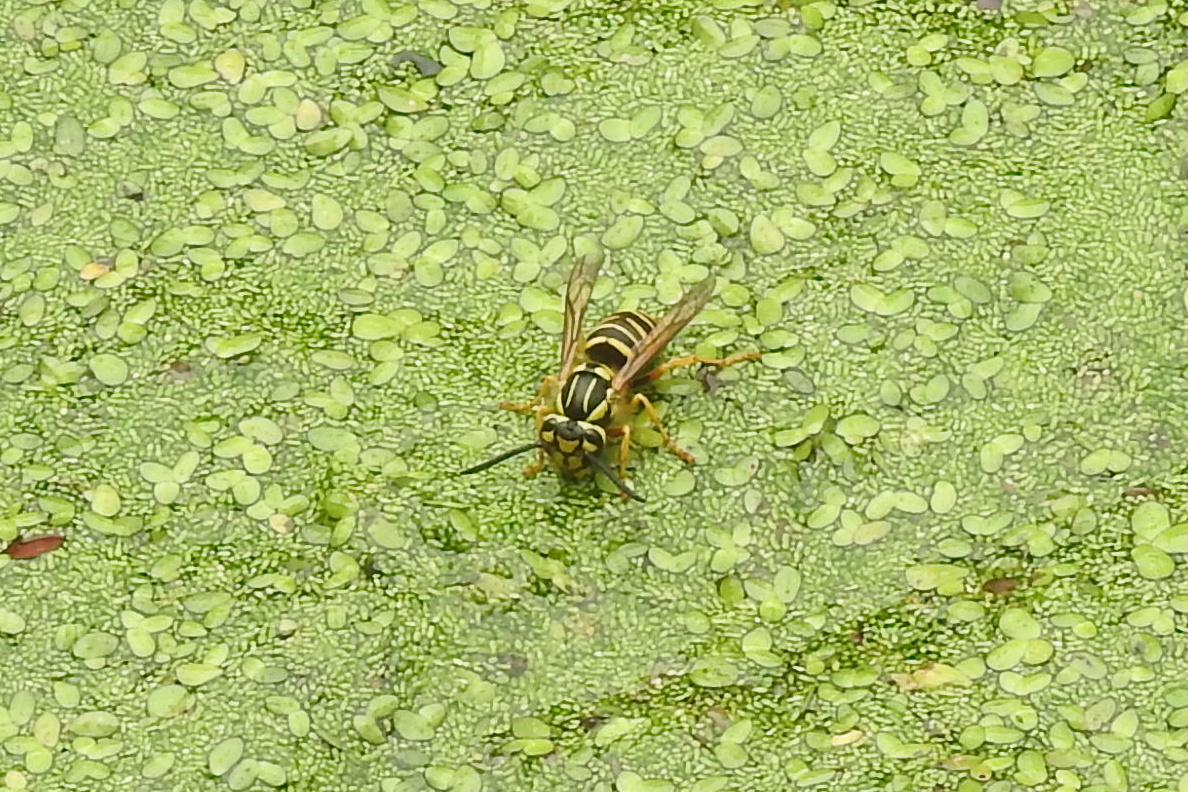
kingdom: Animalia
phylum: Arthropoda
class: Insecta
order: Hymenoptera
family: Vespidae
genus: Vespula
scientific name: Vespula squamosa
